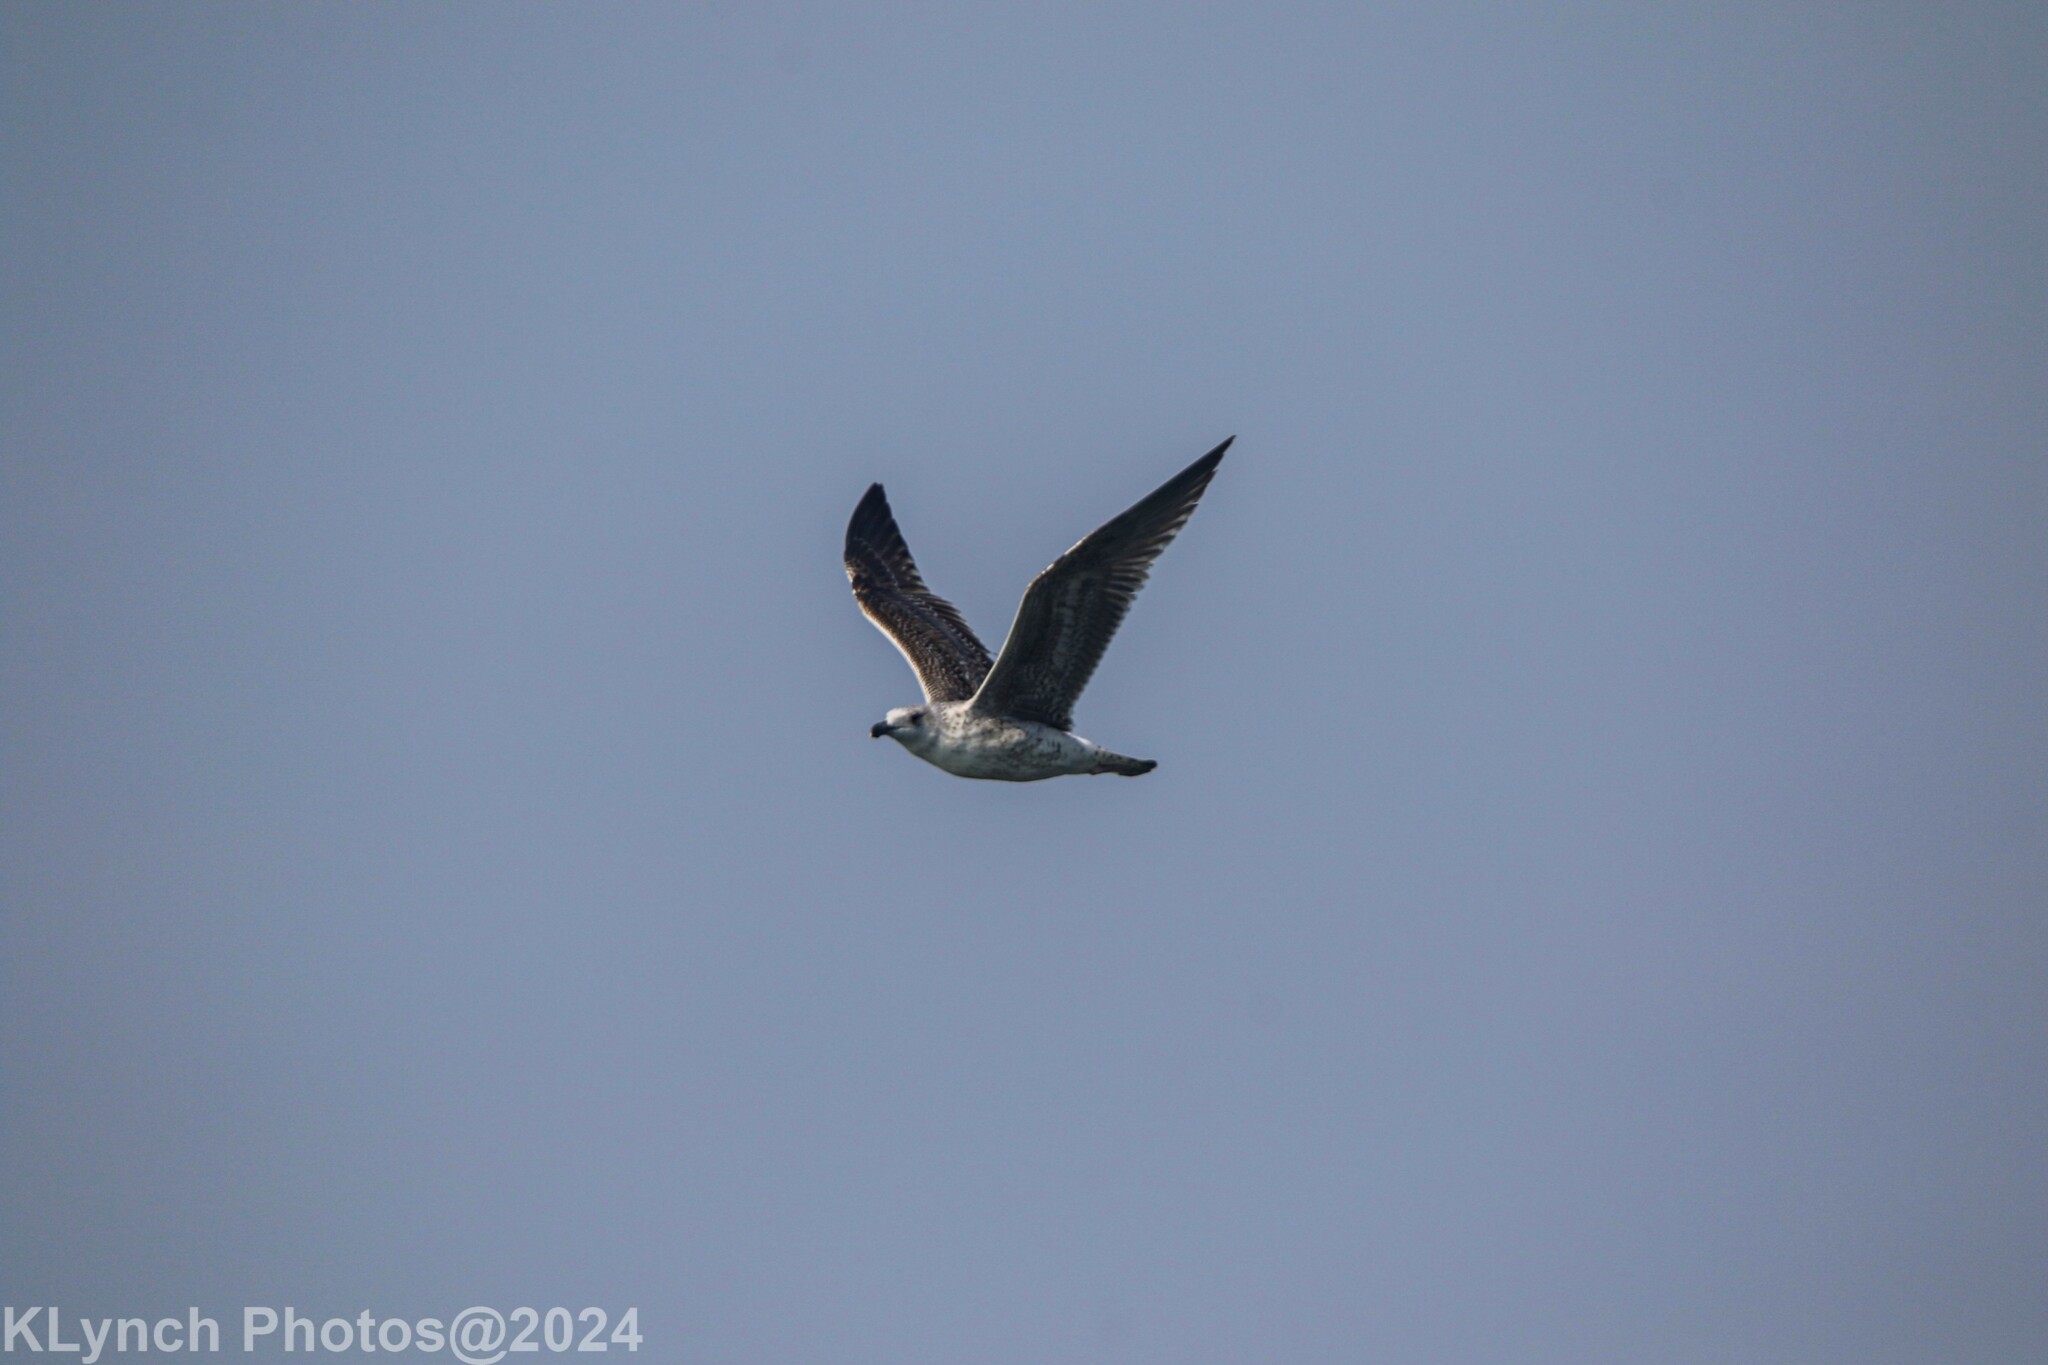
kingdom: Animalia
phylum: Chordata
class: Aves
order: Charadriiformes
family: Laridae
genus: Larus
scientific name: Larus marinus
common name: Great black-backed gull
